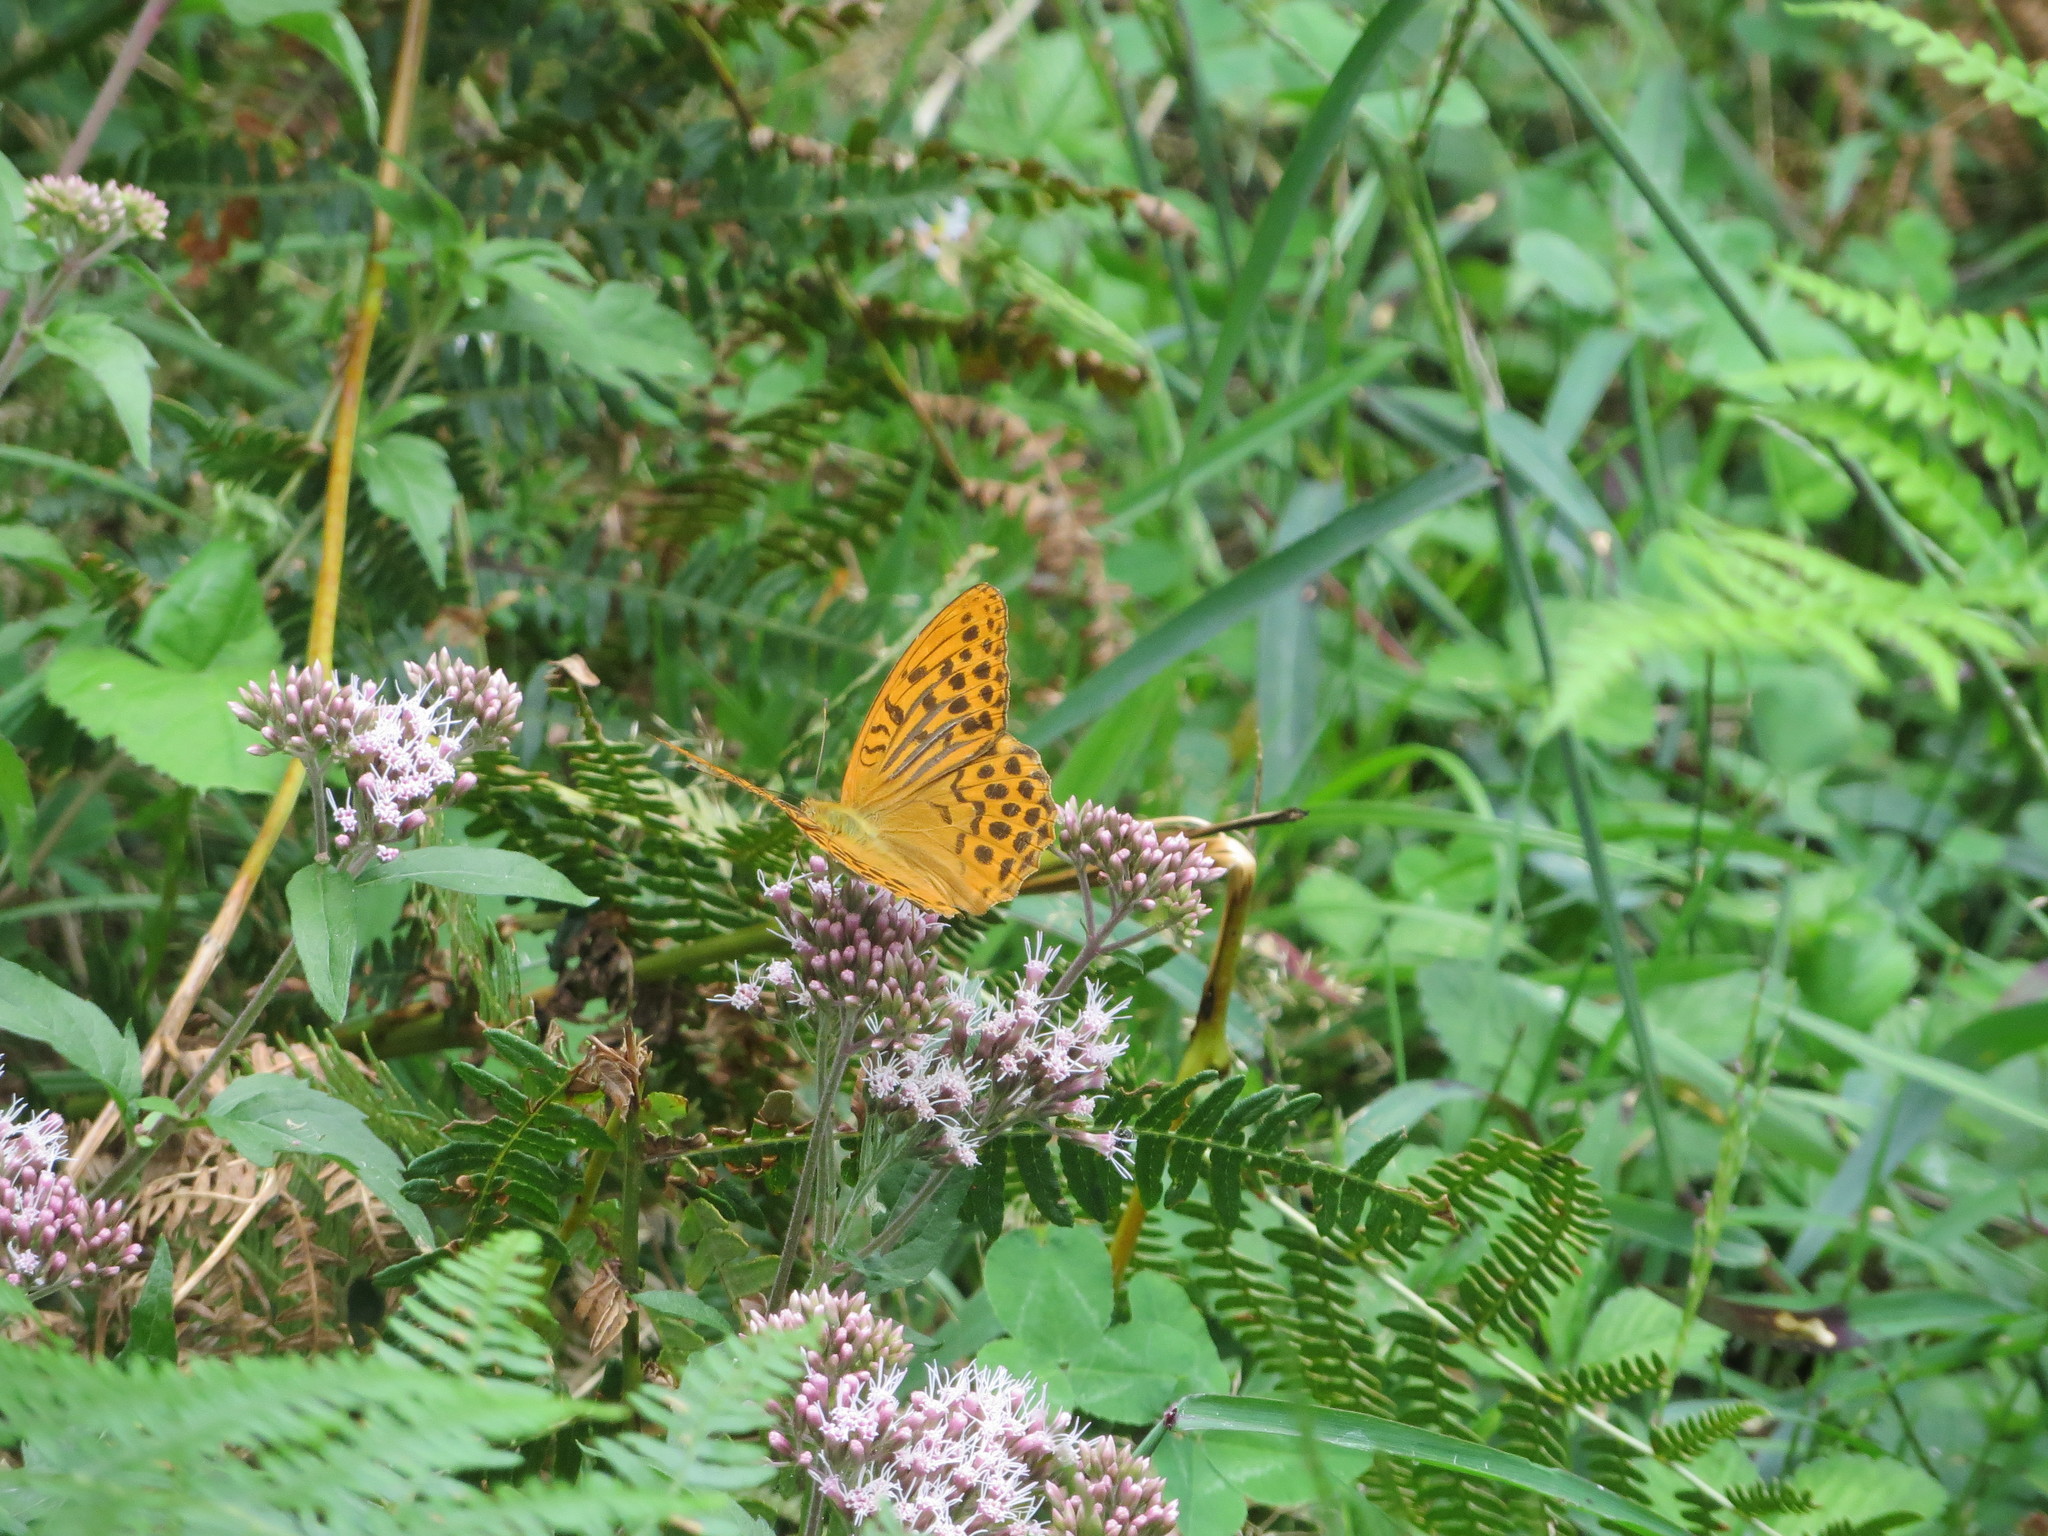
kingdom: Animalia
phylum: Arthropoda
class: Insecta
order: Lepidoptera
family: Nymphalidae
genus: Argynnis
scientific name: Argynnis paphia
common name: Silver-washed fritillary
